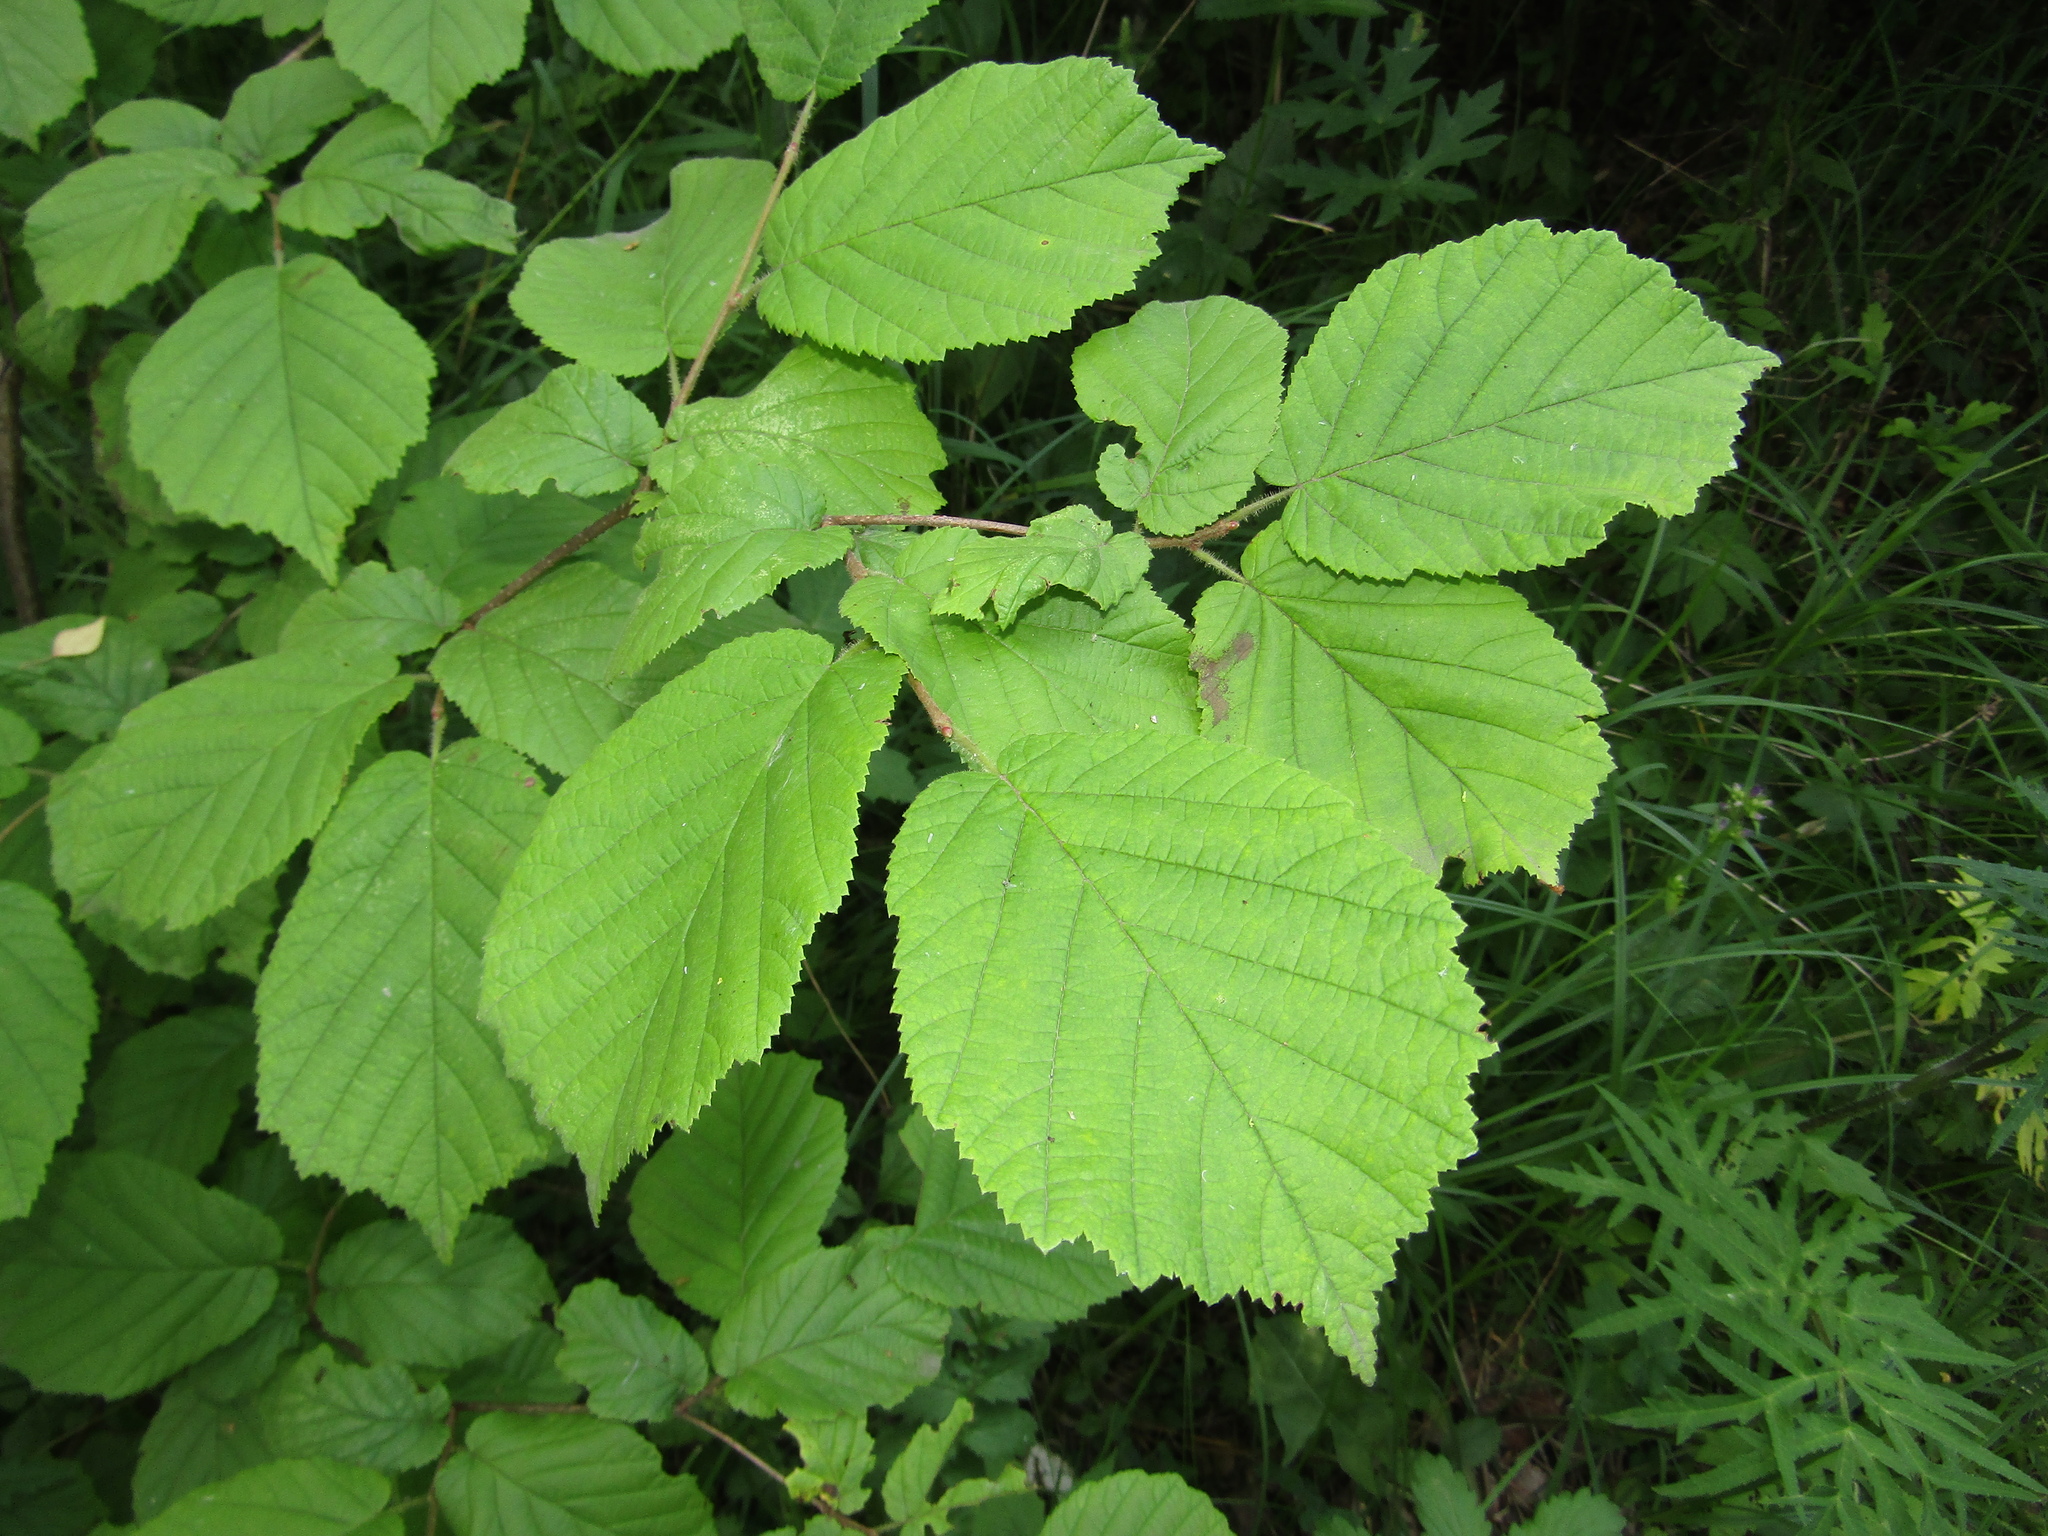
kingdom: Plantae
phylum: Tracheophyta
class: Magnoliopsida
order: Fagales
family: Betulaceae
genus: Corylus
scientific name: Corylus avellana
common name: European hazel
